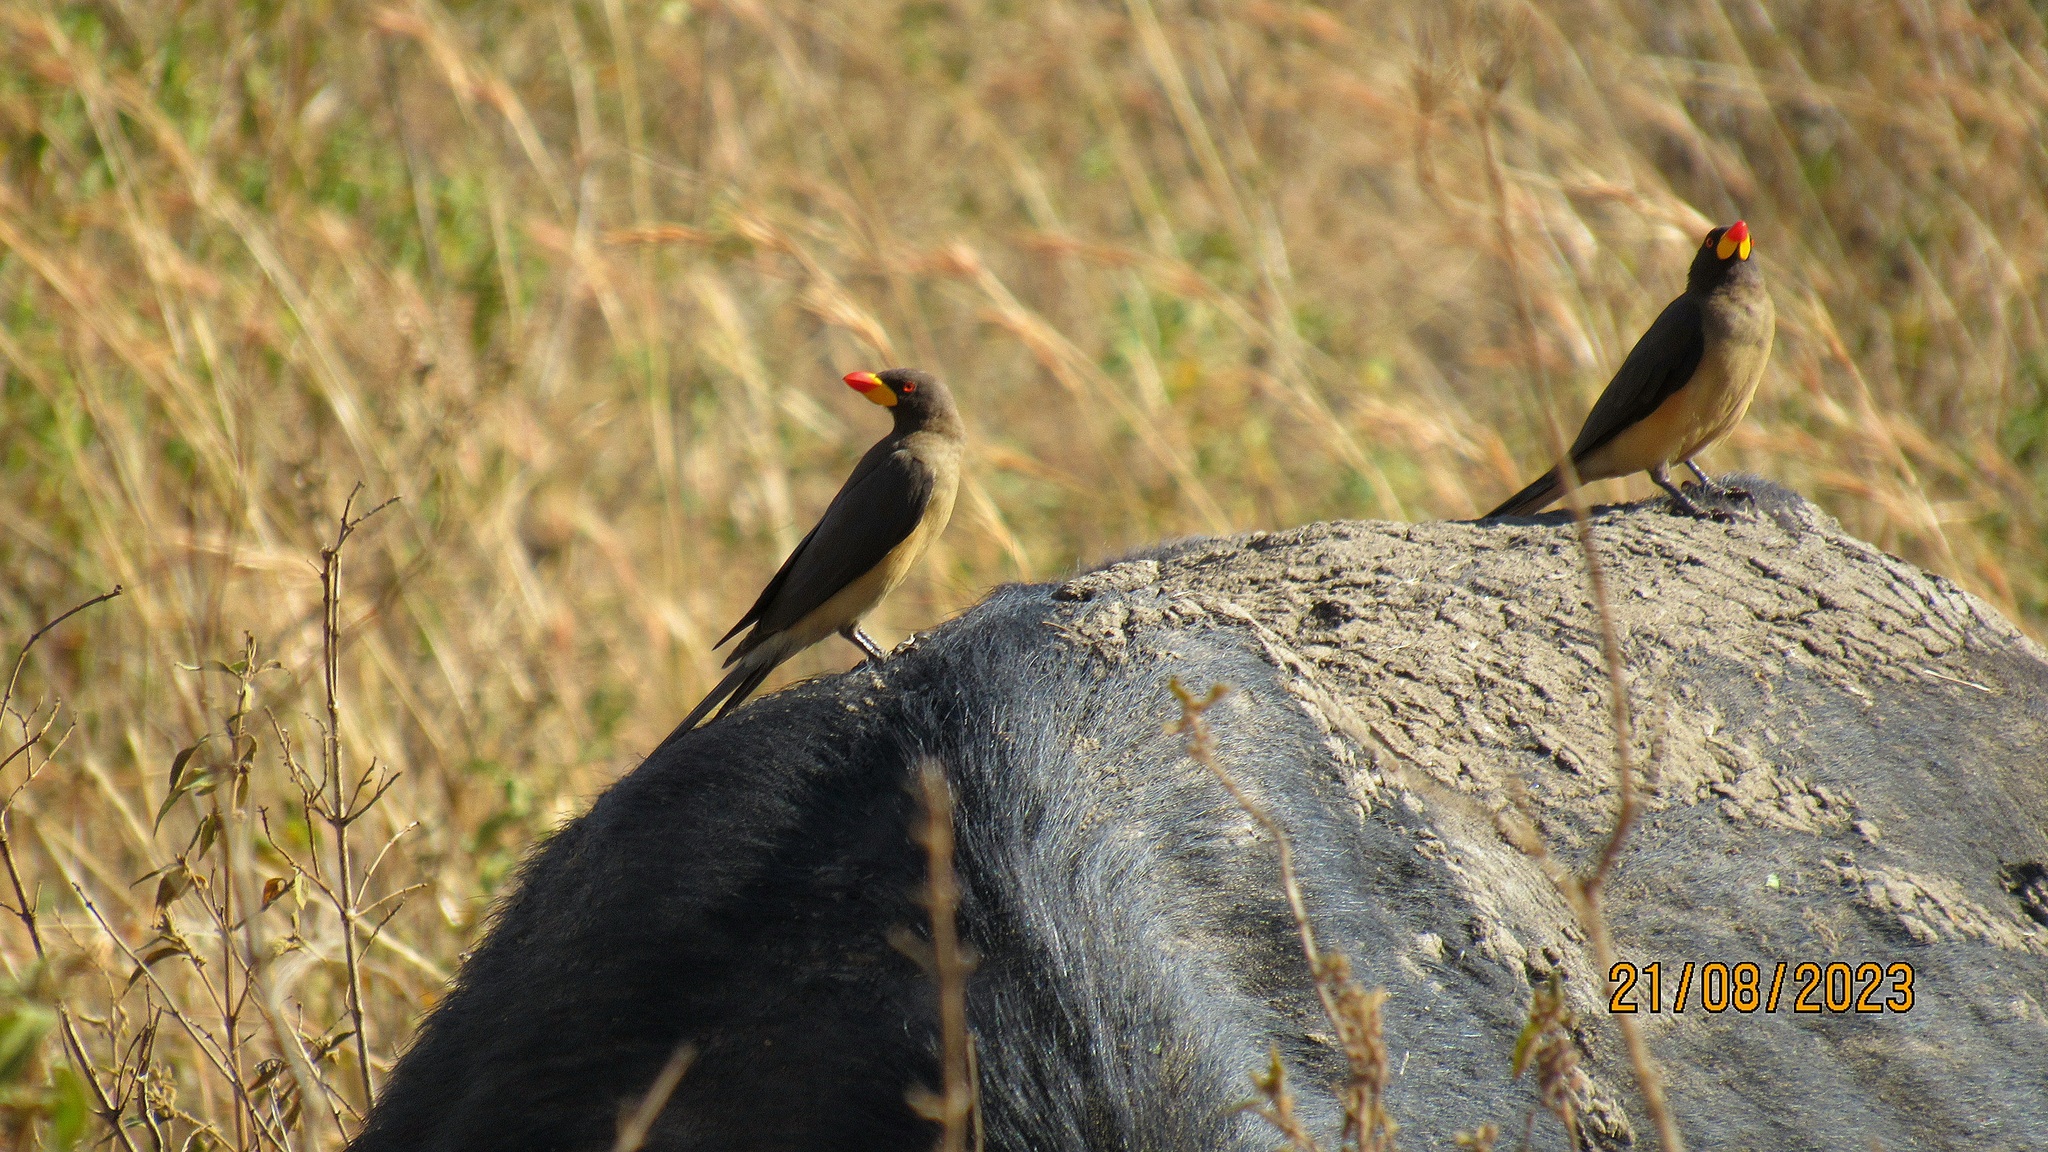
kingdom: Animalia
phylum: Chordata
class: Aves
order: Passeriformes
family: Buphagidae
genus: Buphagus
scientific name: Buphagus africanus
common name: Yellow-billed oxpecker
